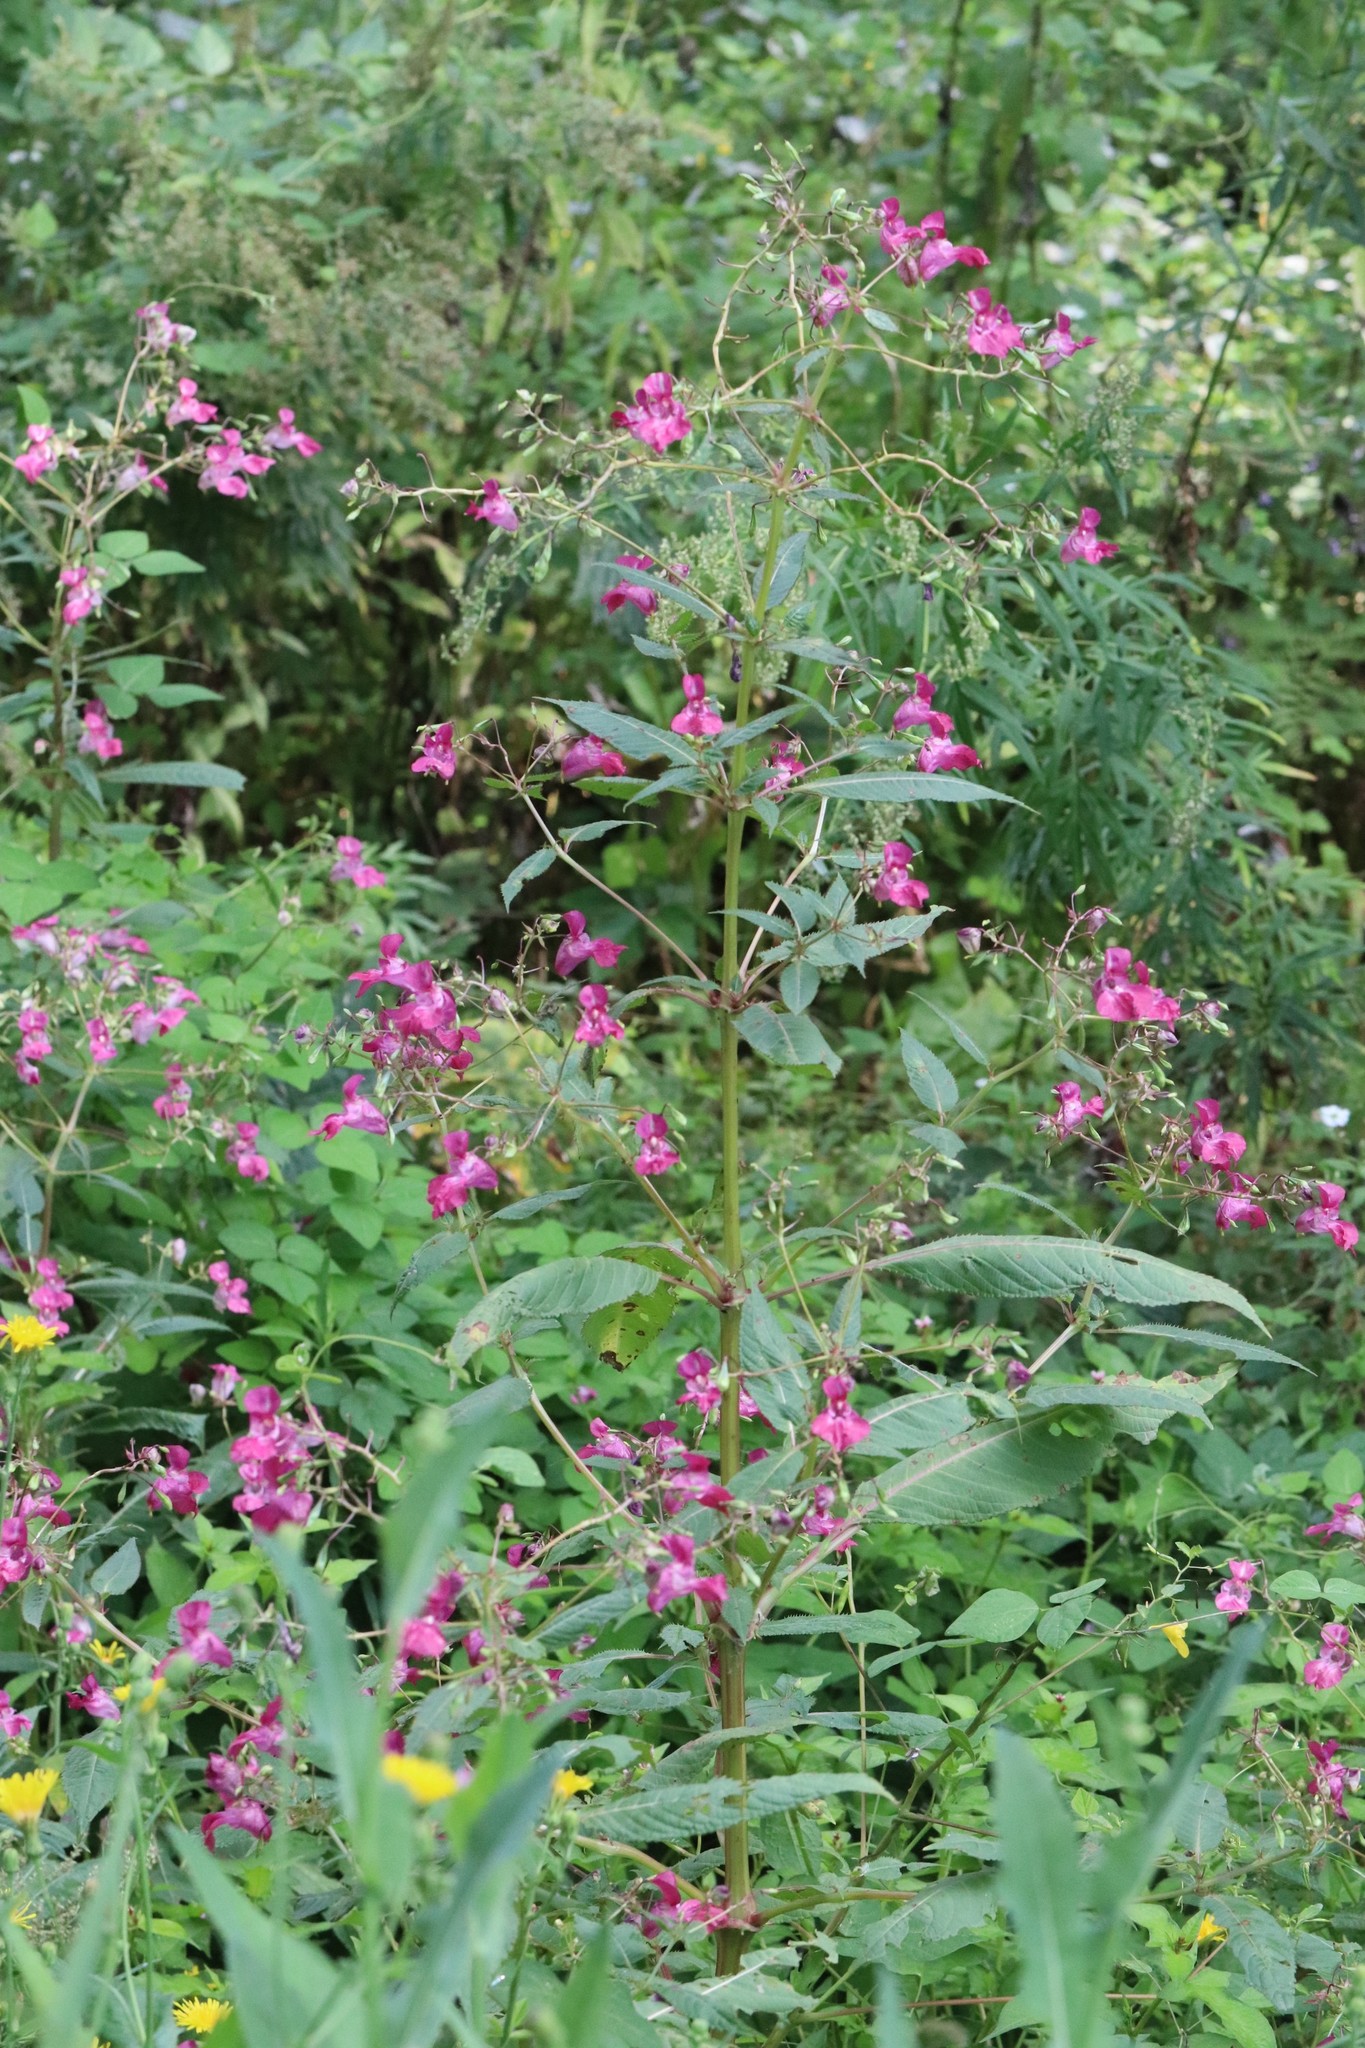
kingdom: Plantae
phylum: Tracheophyta
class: Magnoliopsida
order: Ericales
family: Balsaminaceae
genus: Impatiens
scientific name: Impatiens glandulifera
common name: Himalayan balsam
